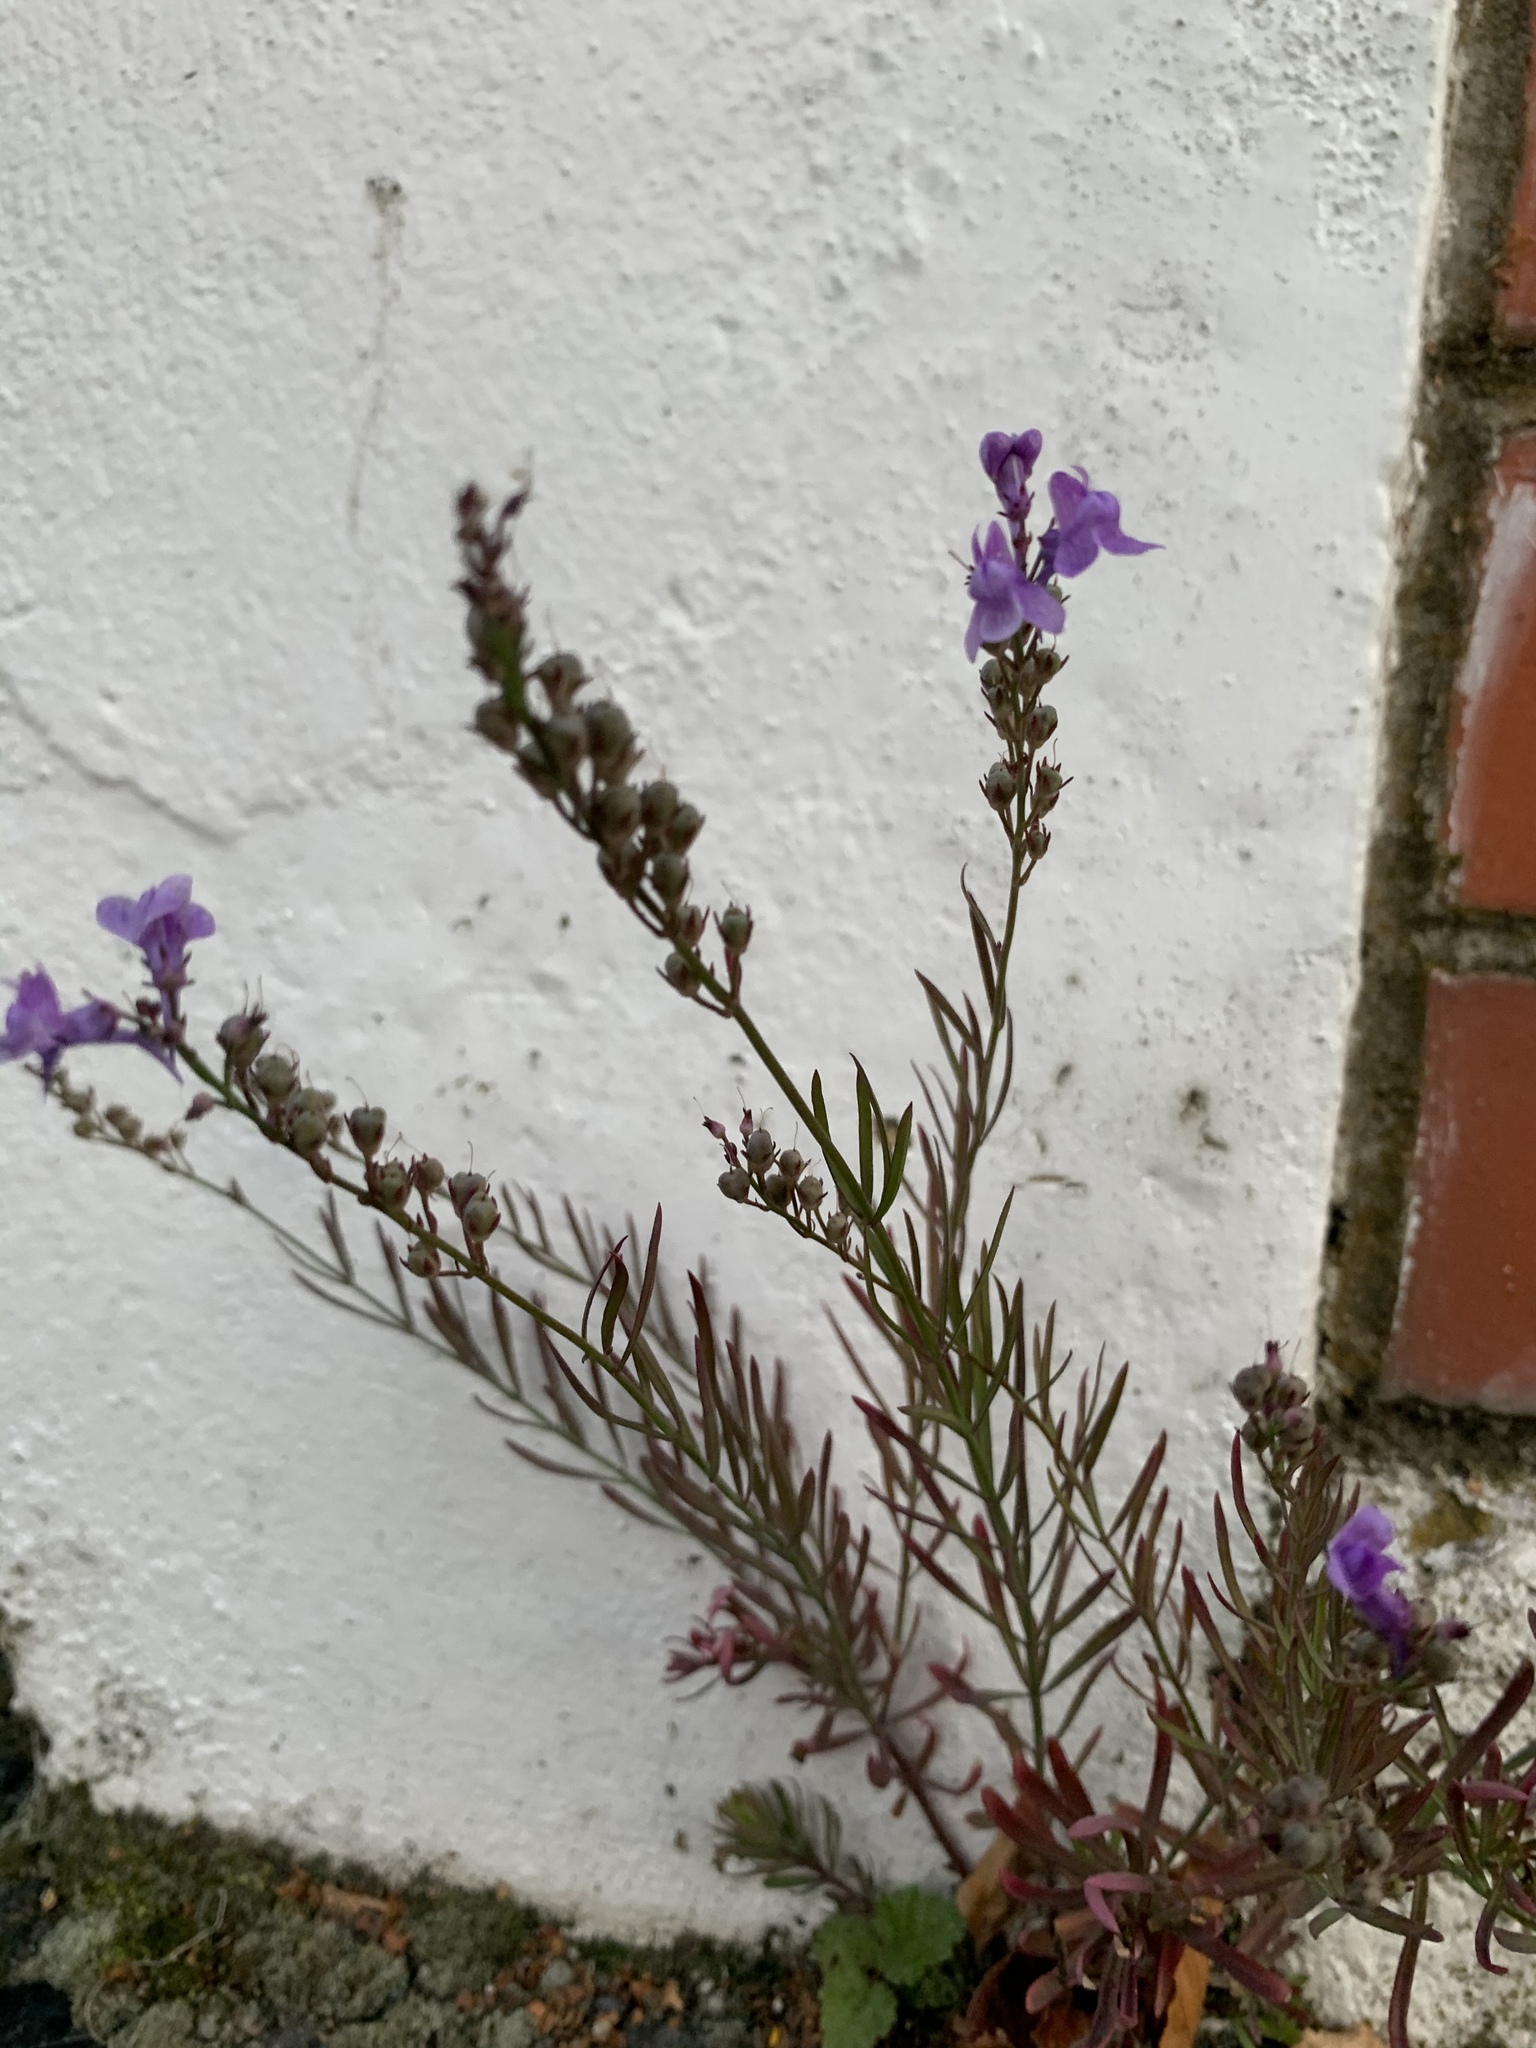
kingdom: Plantae
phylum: Tracheophyta
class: Magnoliopsida
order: Lamiales
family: Plantaginaceae
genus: Linaria
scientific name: Linaria purpurea
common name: Purple toadflax
